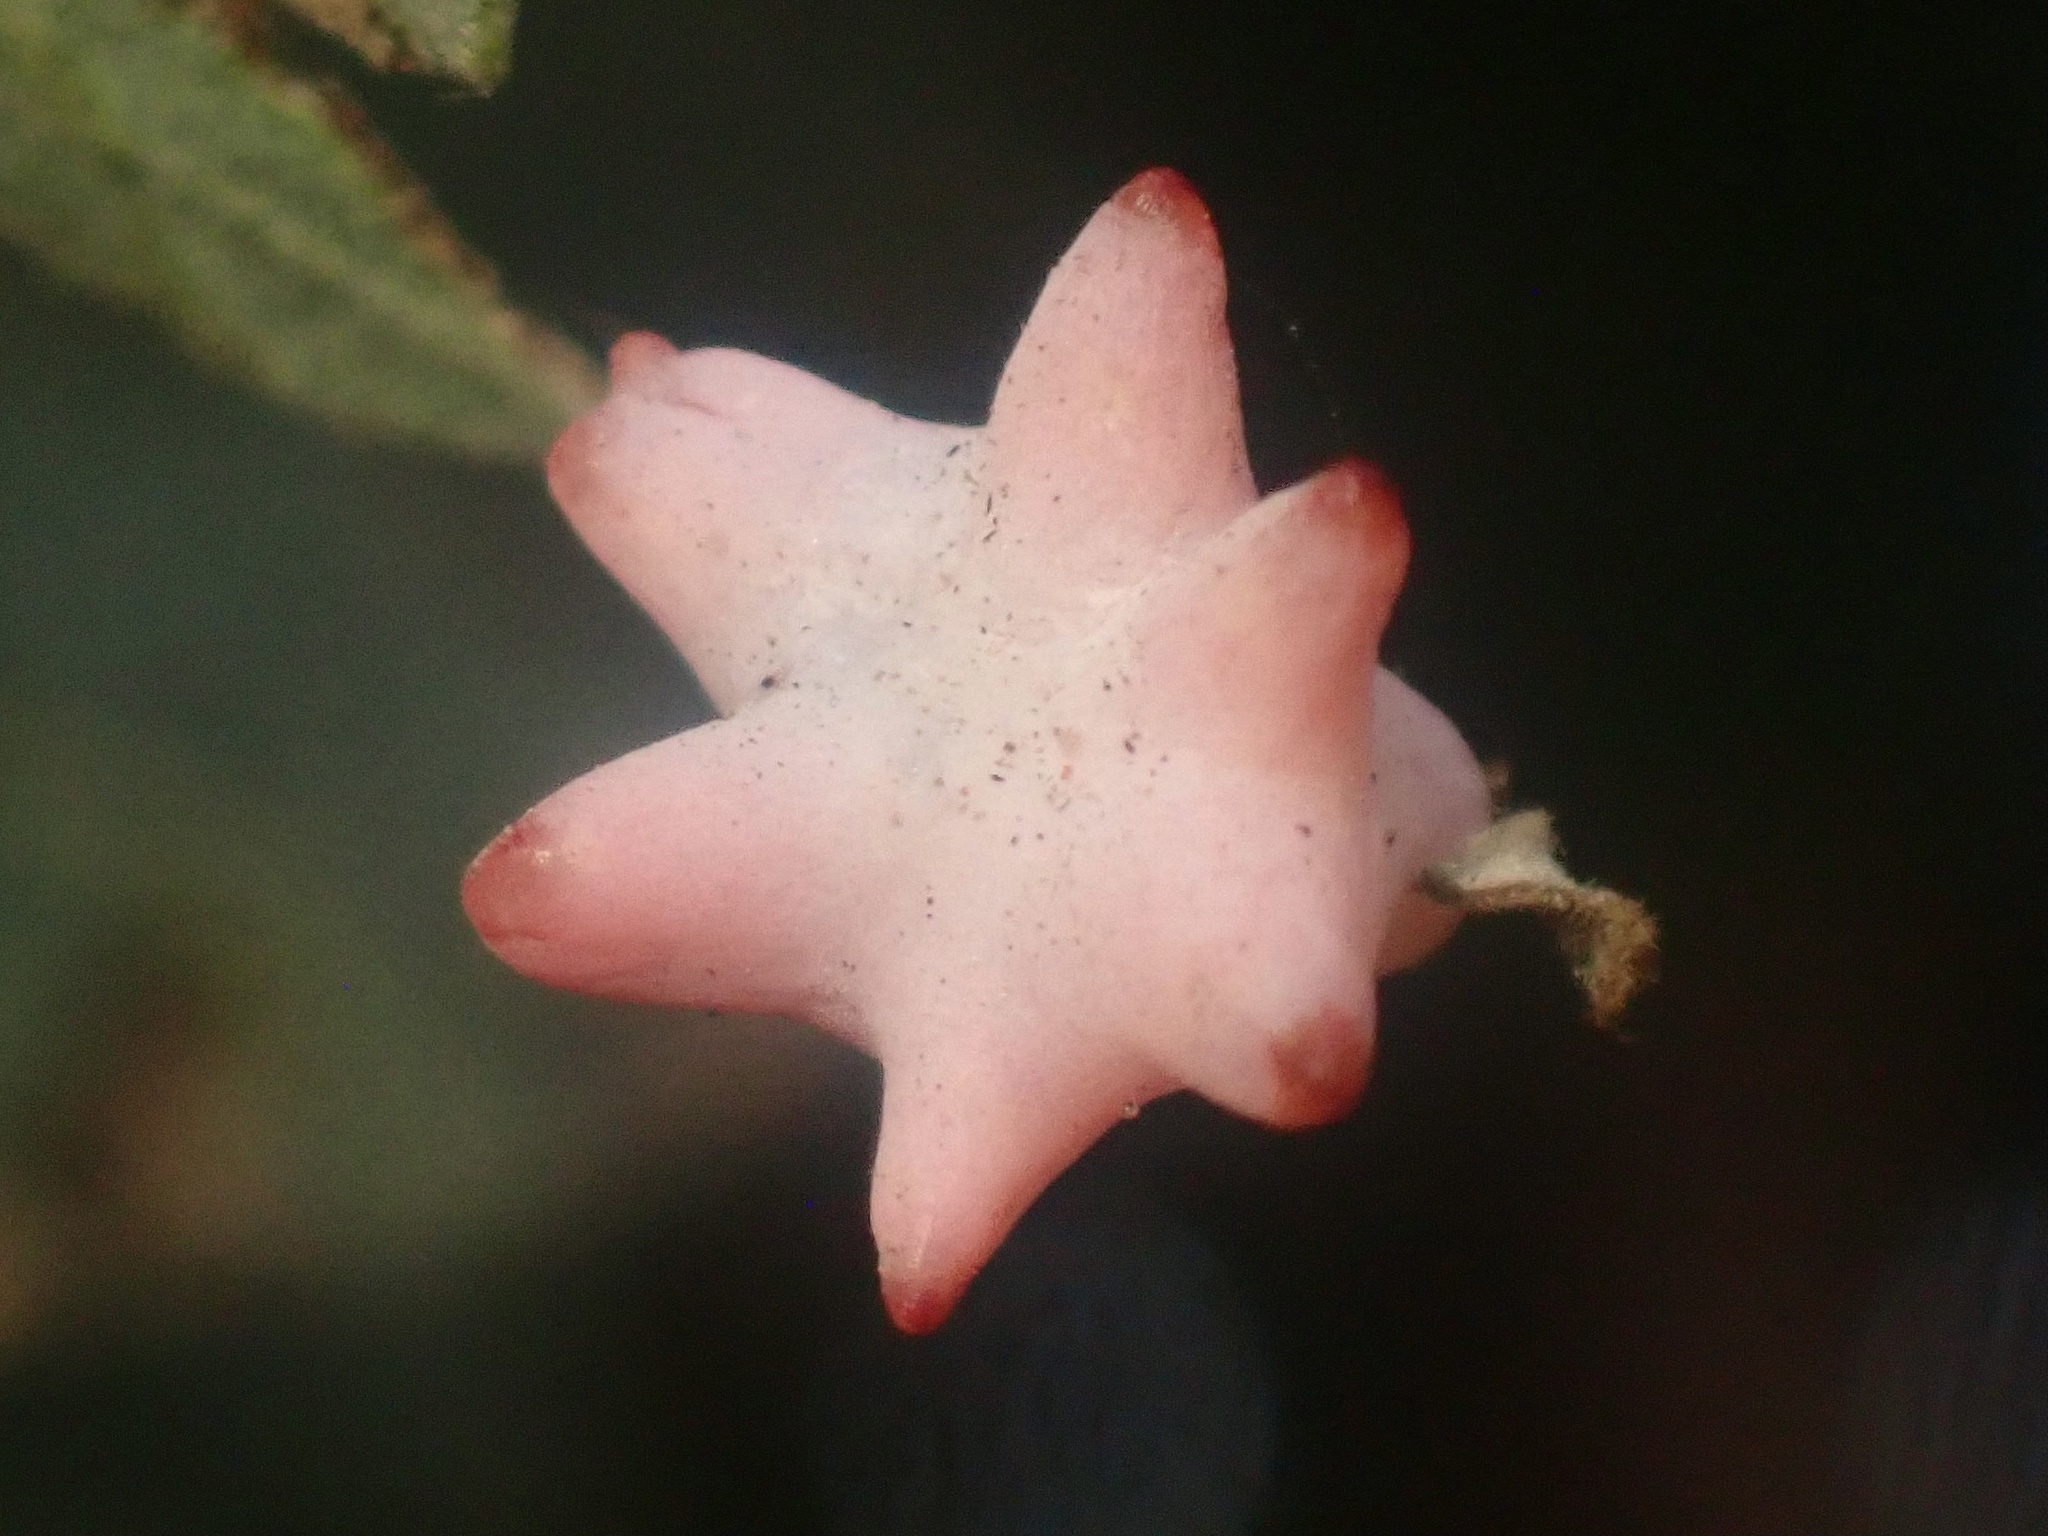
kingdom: Animalia
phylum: Arthropoda
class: Insecta
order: Hymenoptera
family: Cynipidae
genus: Cynips
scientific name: Cynips douglasi
